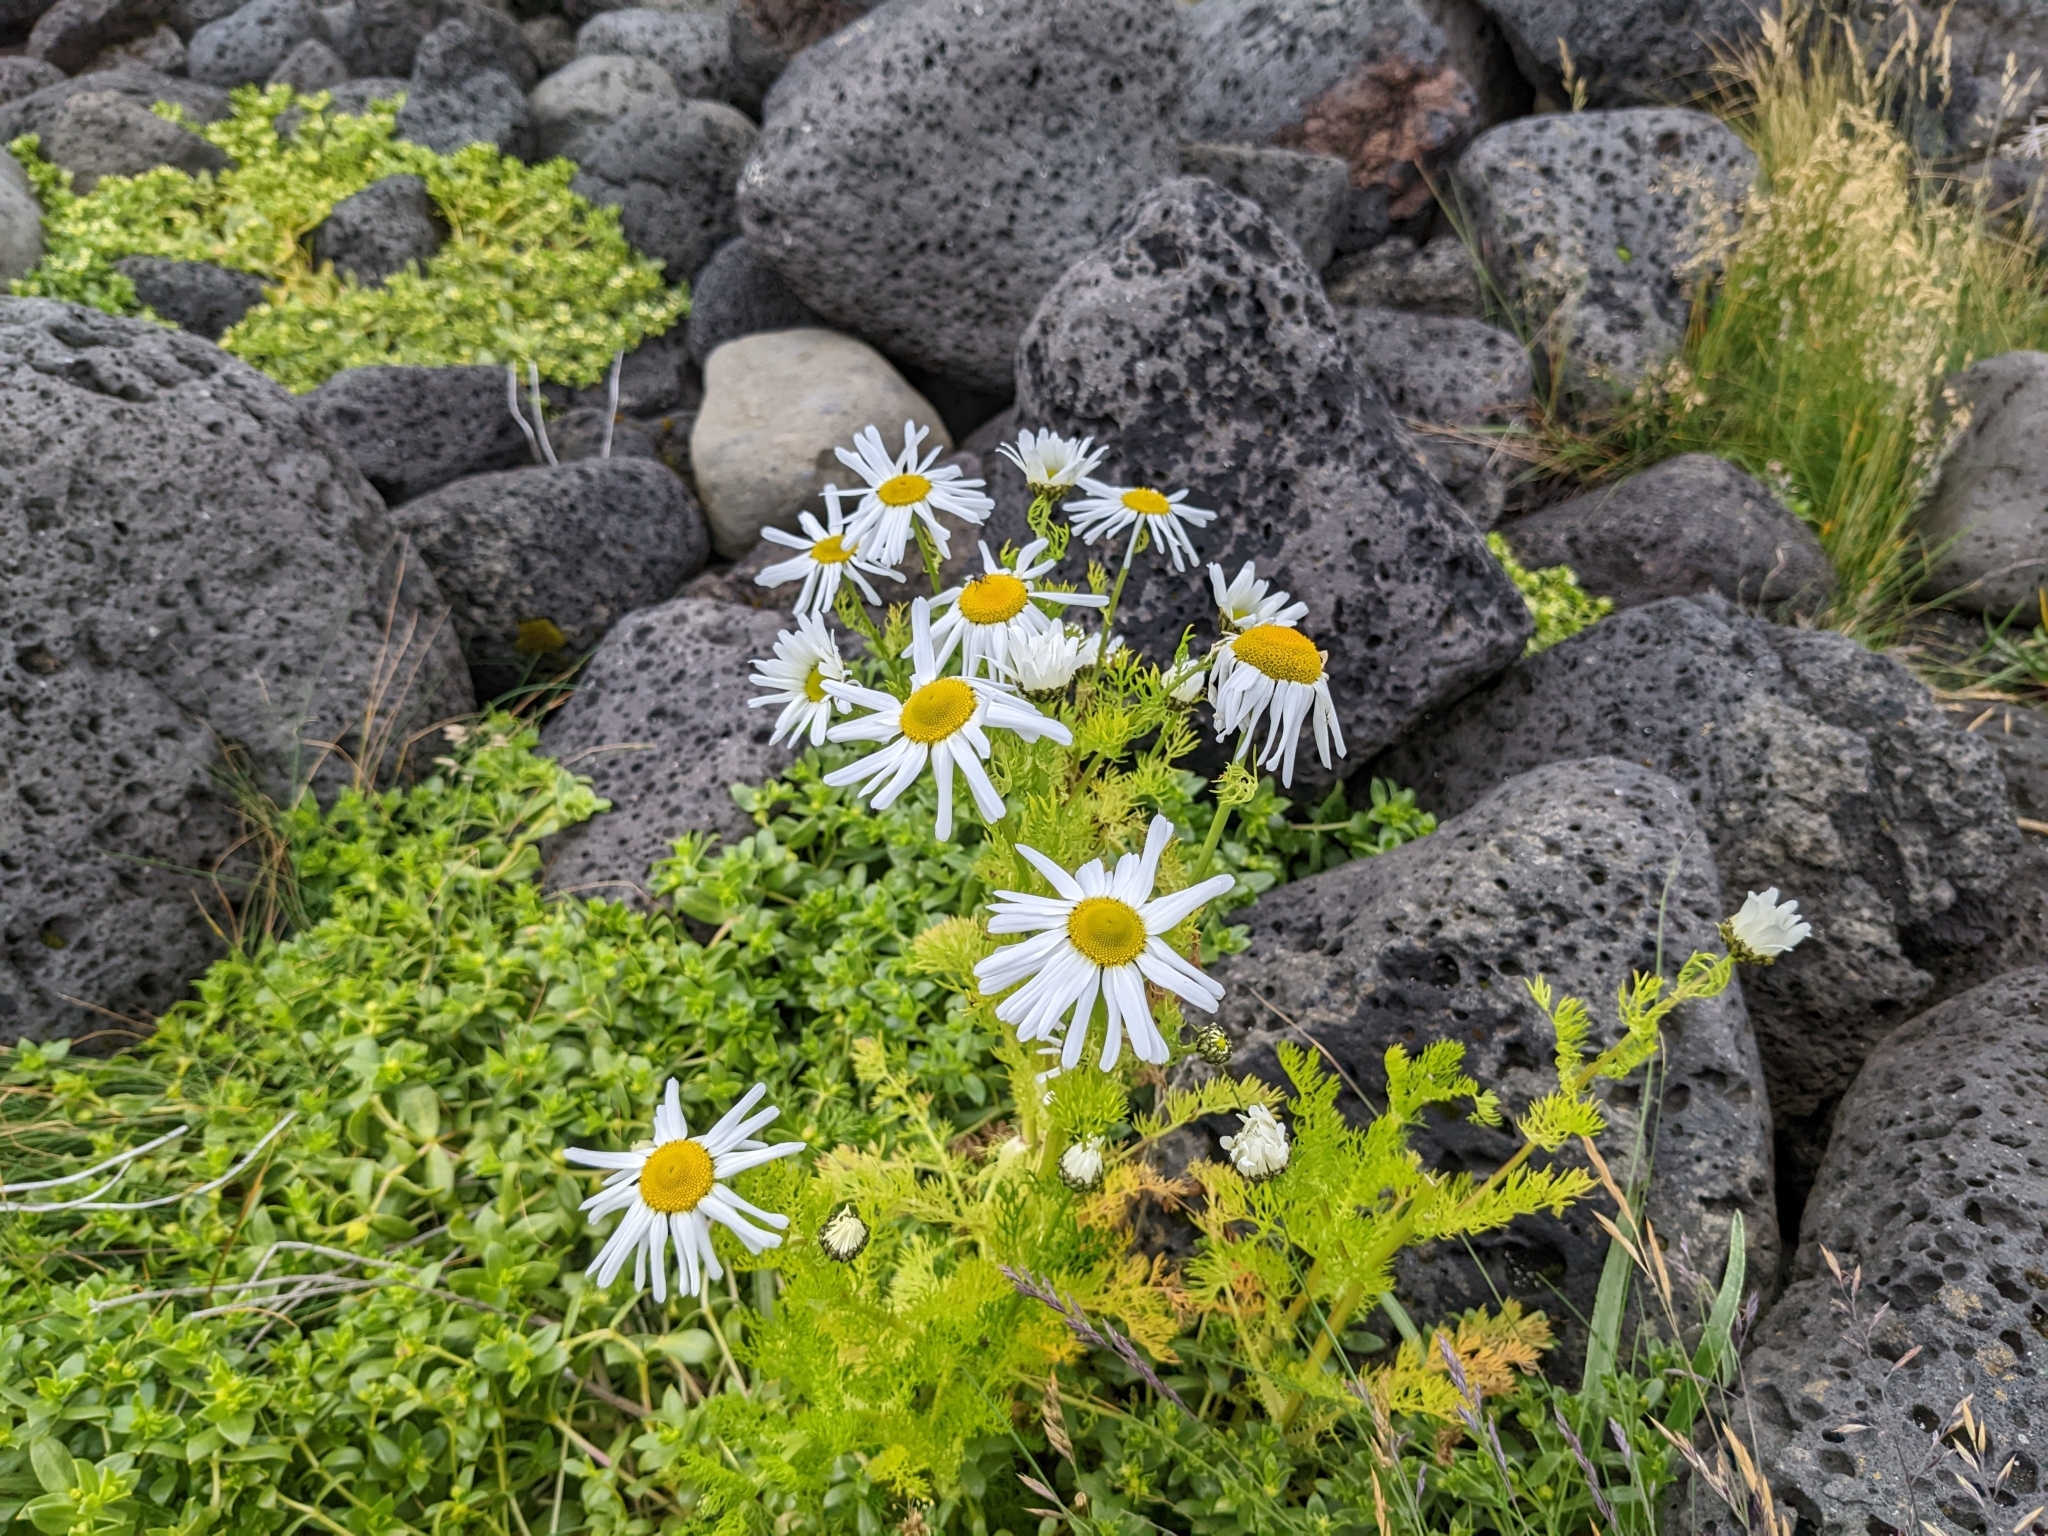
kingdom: Plantae
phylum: Tracheophyta
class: Magnoliopsida
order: Asterales
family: Asteraceae
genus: Tripleurospermum
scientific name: Tripleurospermum maritimum
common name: Sea mayweed
